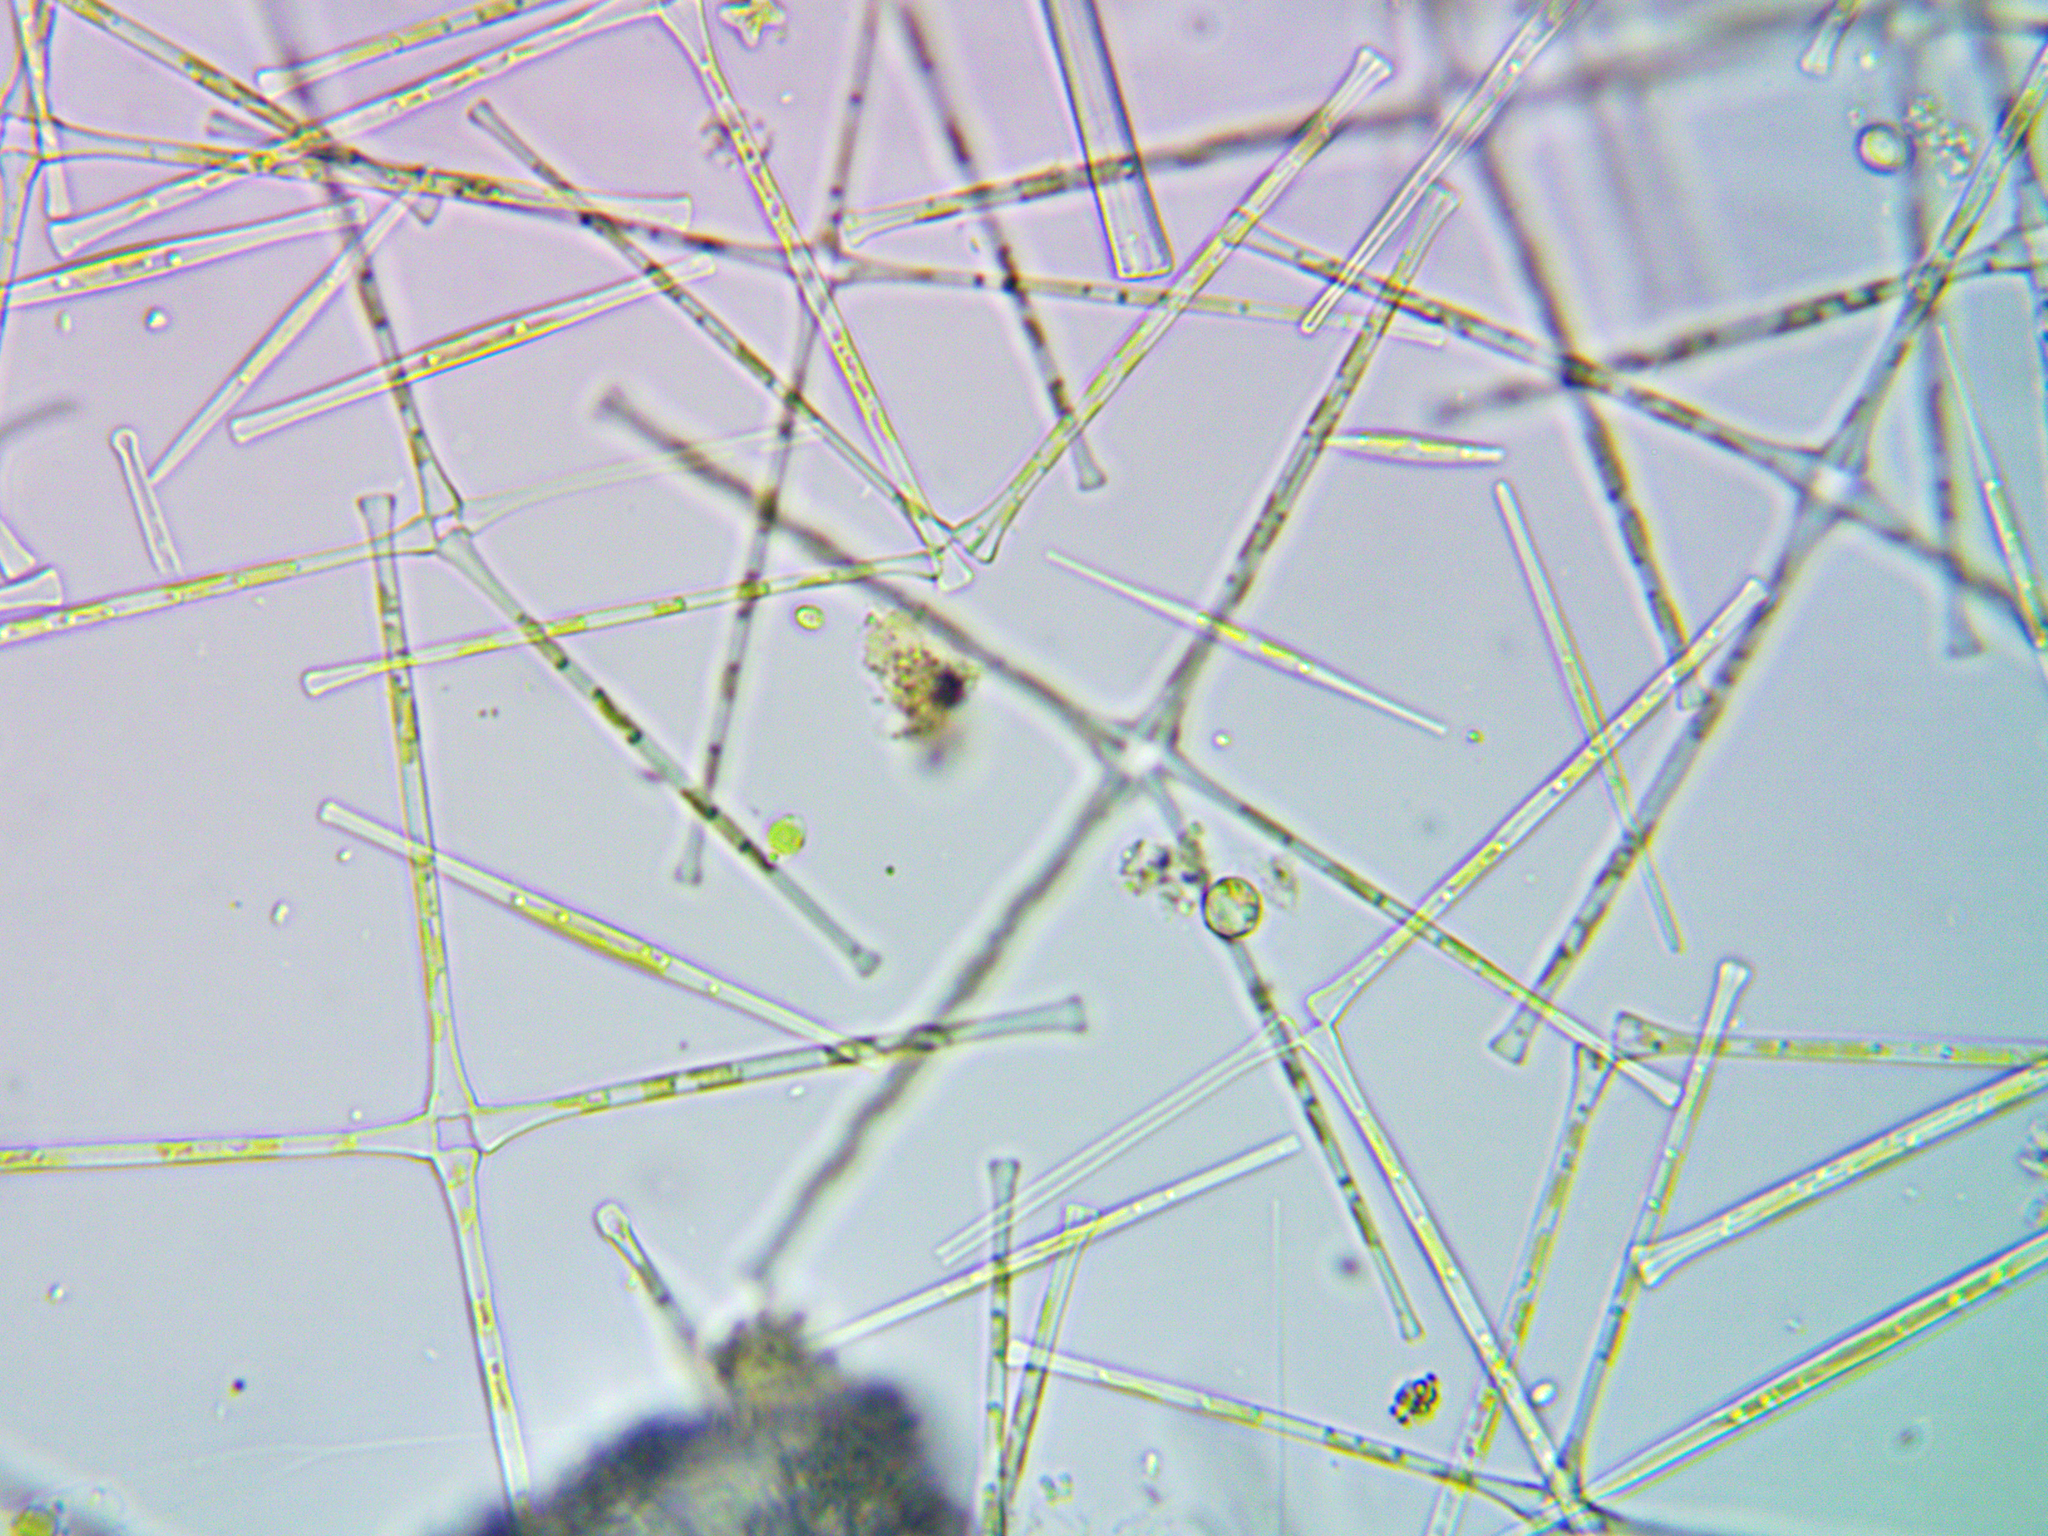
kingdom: Chromista
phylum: Ochrophyta
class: Bacillariophyceae
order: Fragilariales
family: Fragilariaceae
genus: Asterionella
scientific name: Asterionella formosa
